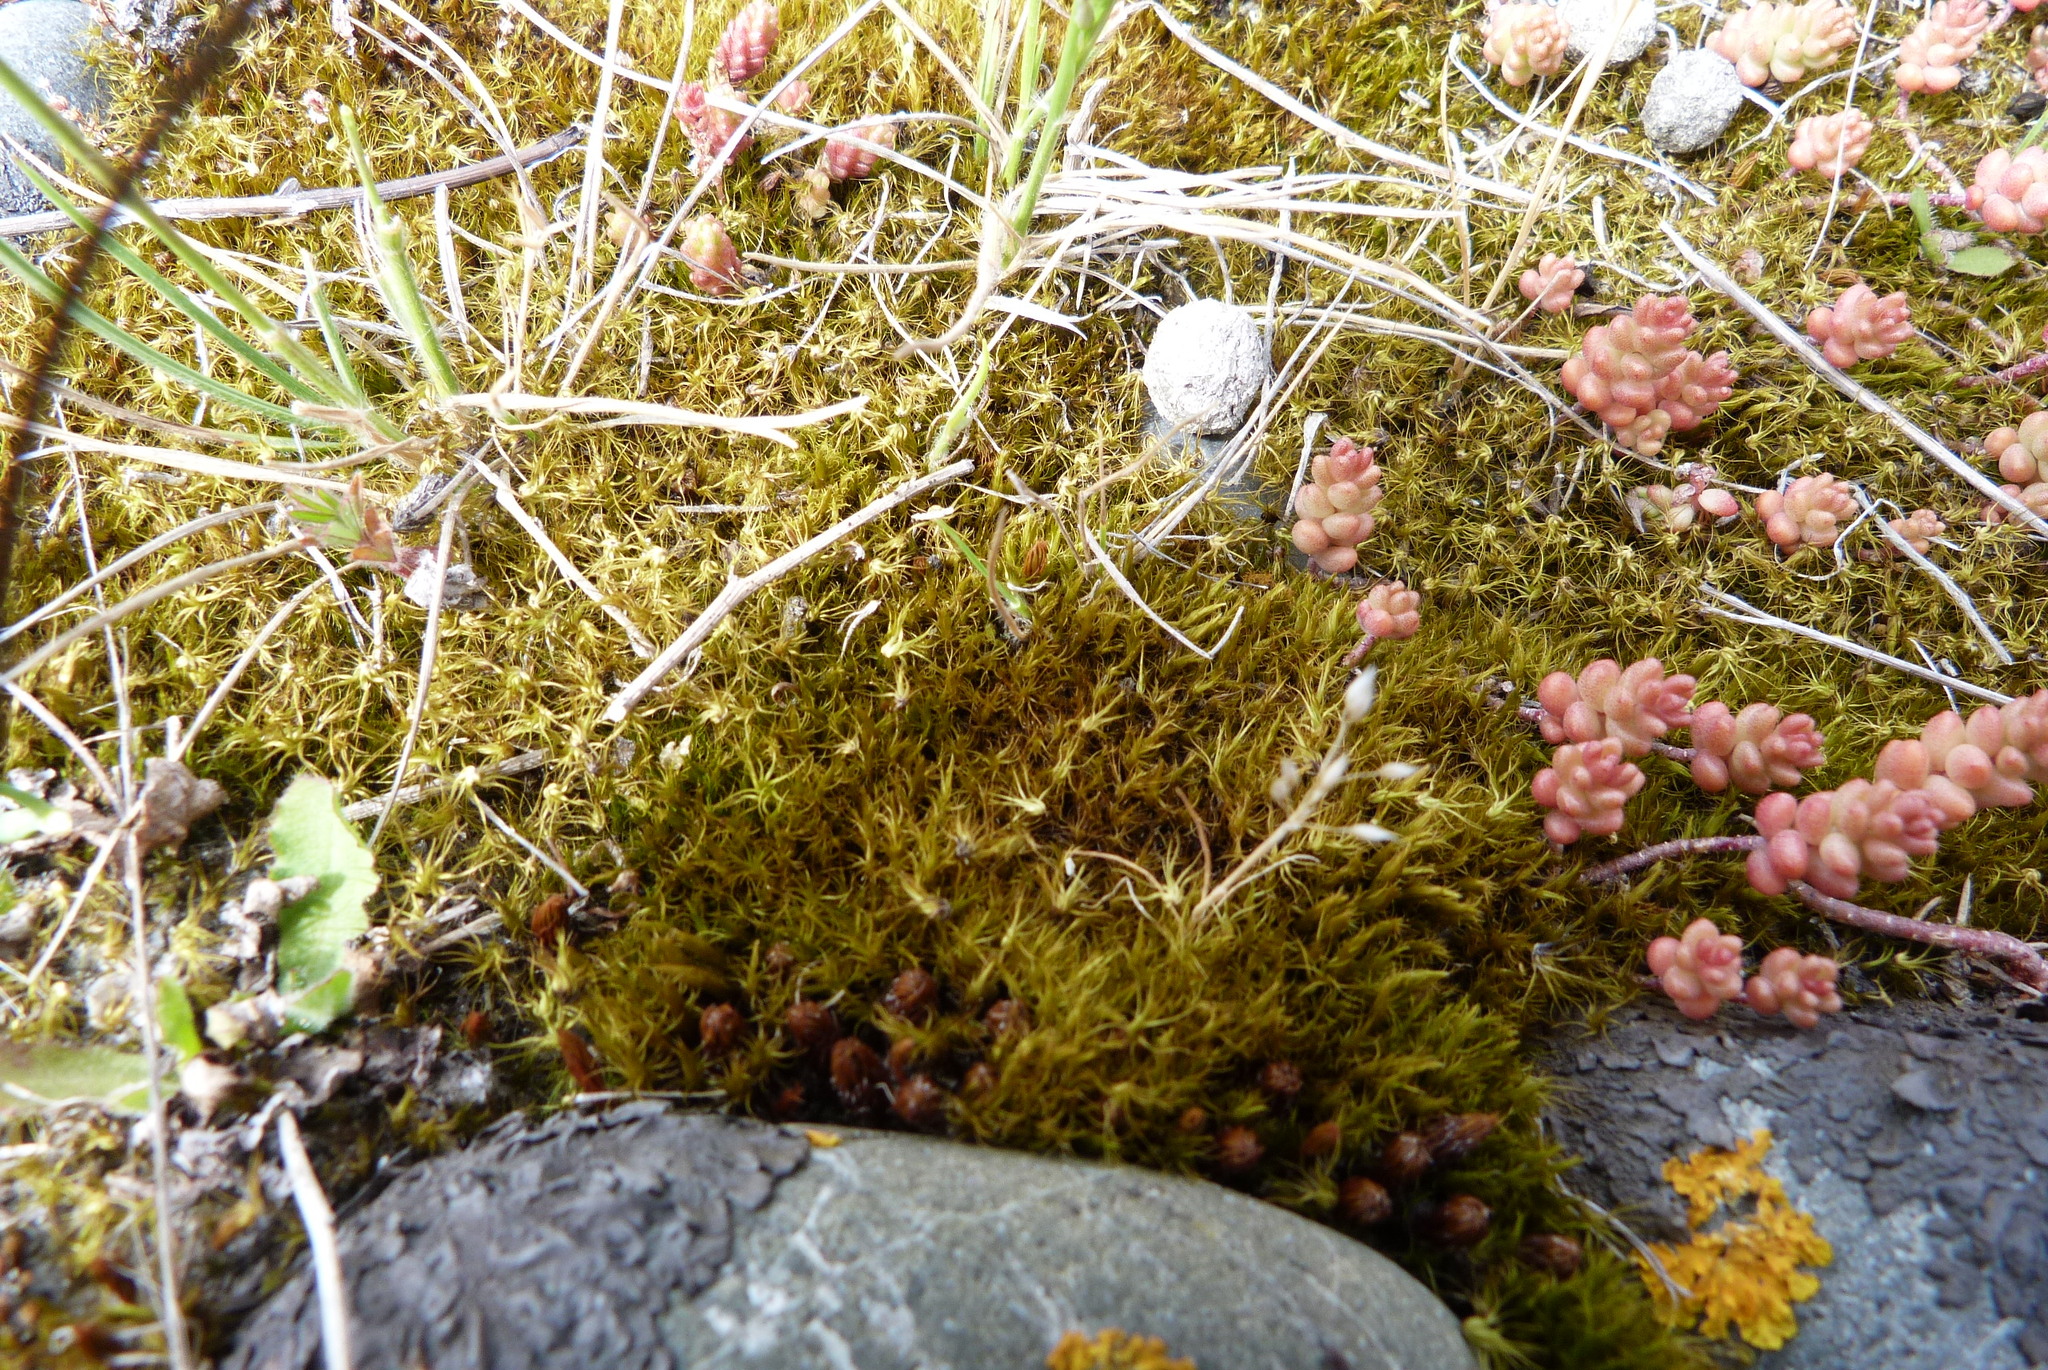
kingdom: Plantae
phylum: Bryophyta
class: Bryopsida
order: Dicranales
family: Leucobryaceae
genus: Campylopus
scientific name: Campylopus clavatus
